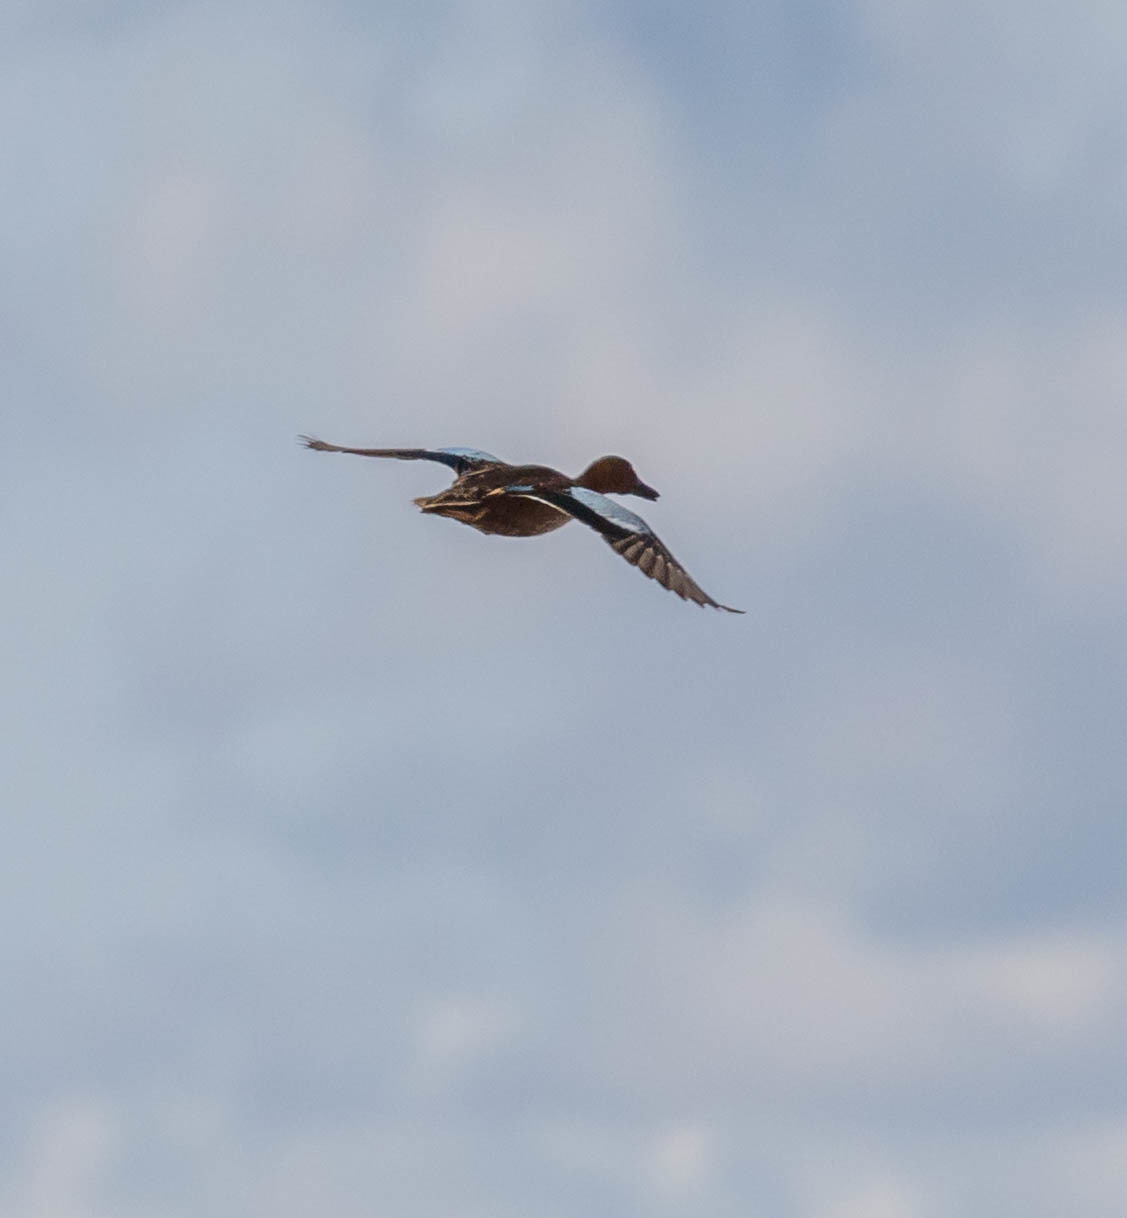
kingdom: Animalia
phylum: Chordata
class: Aves
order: Anseriformes
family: Anatidae
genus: Spatula
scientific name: Spatula cyanoptera
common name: Cinnamon teal
